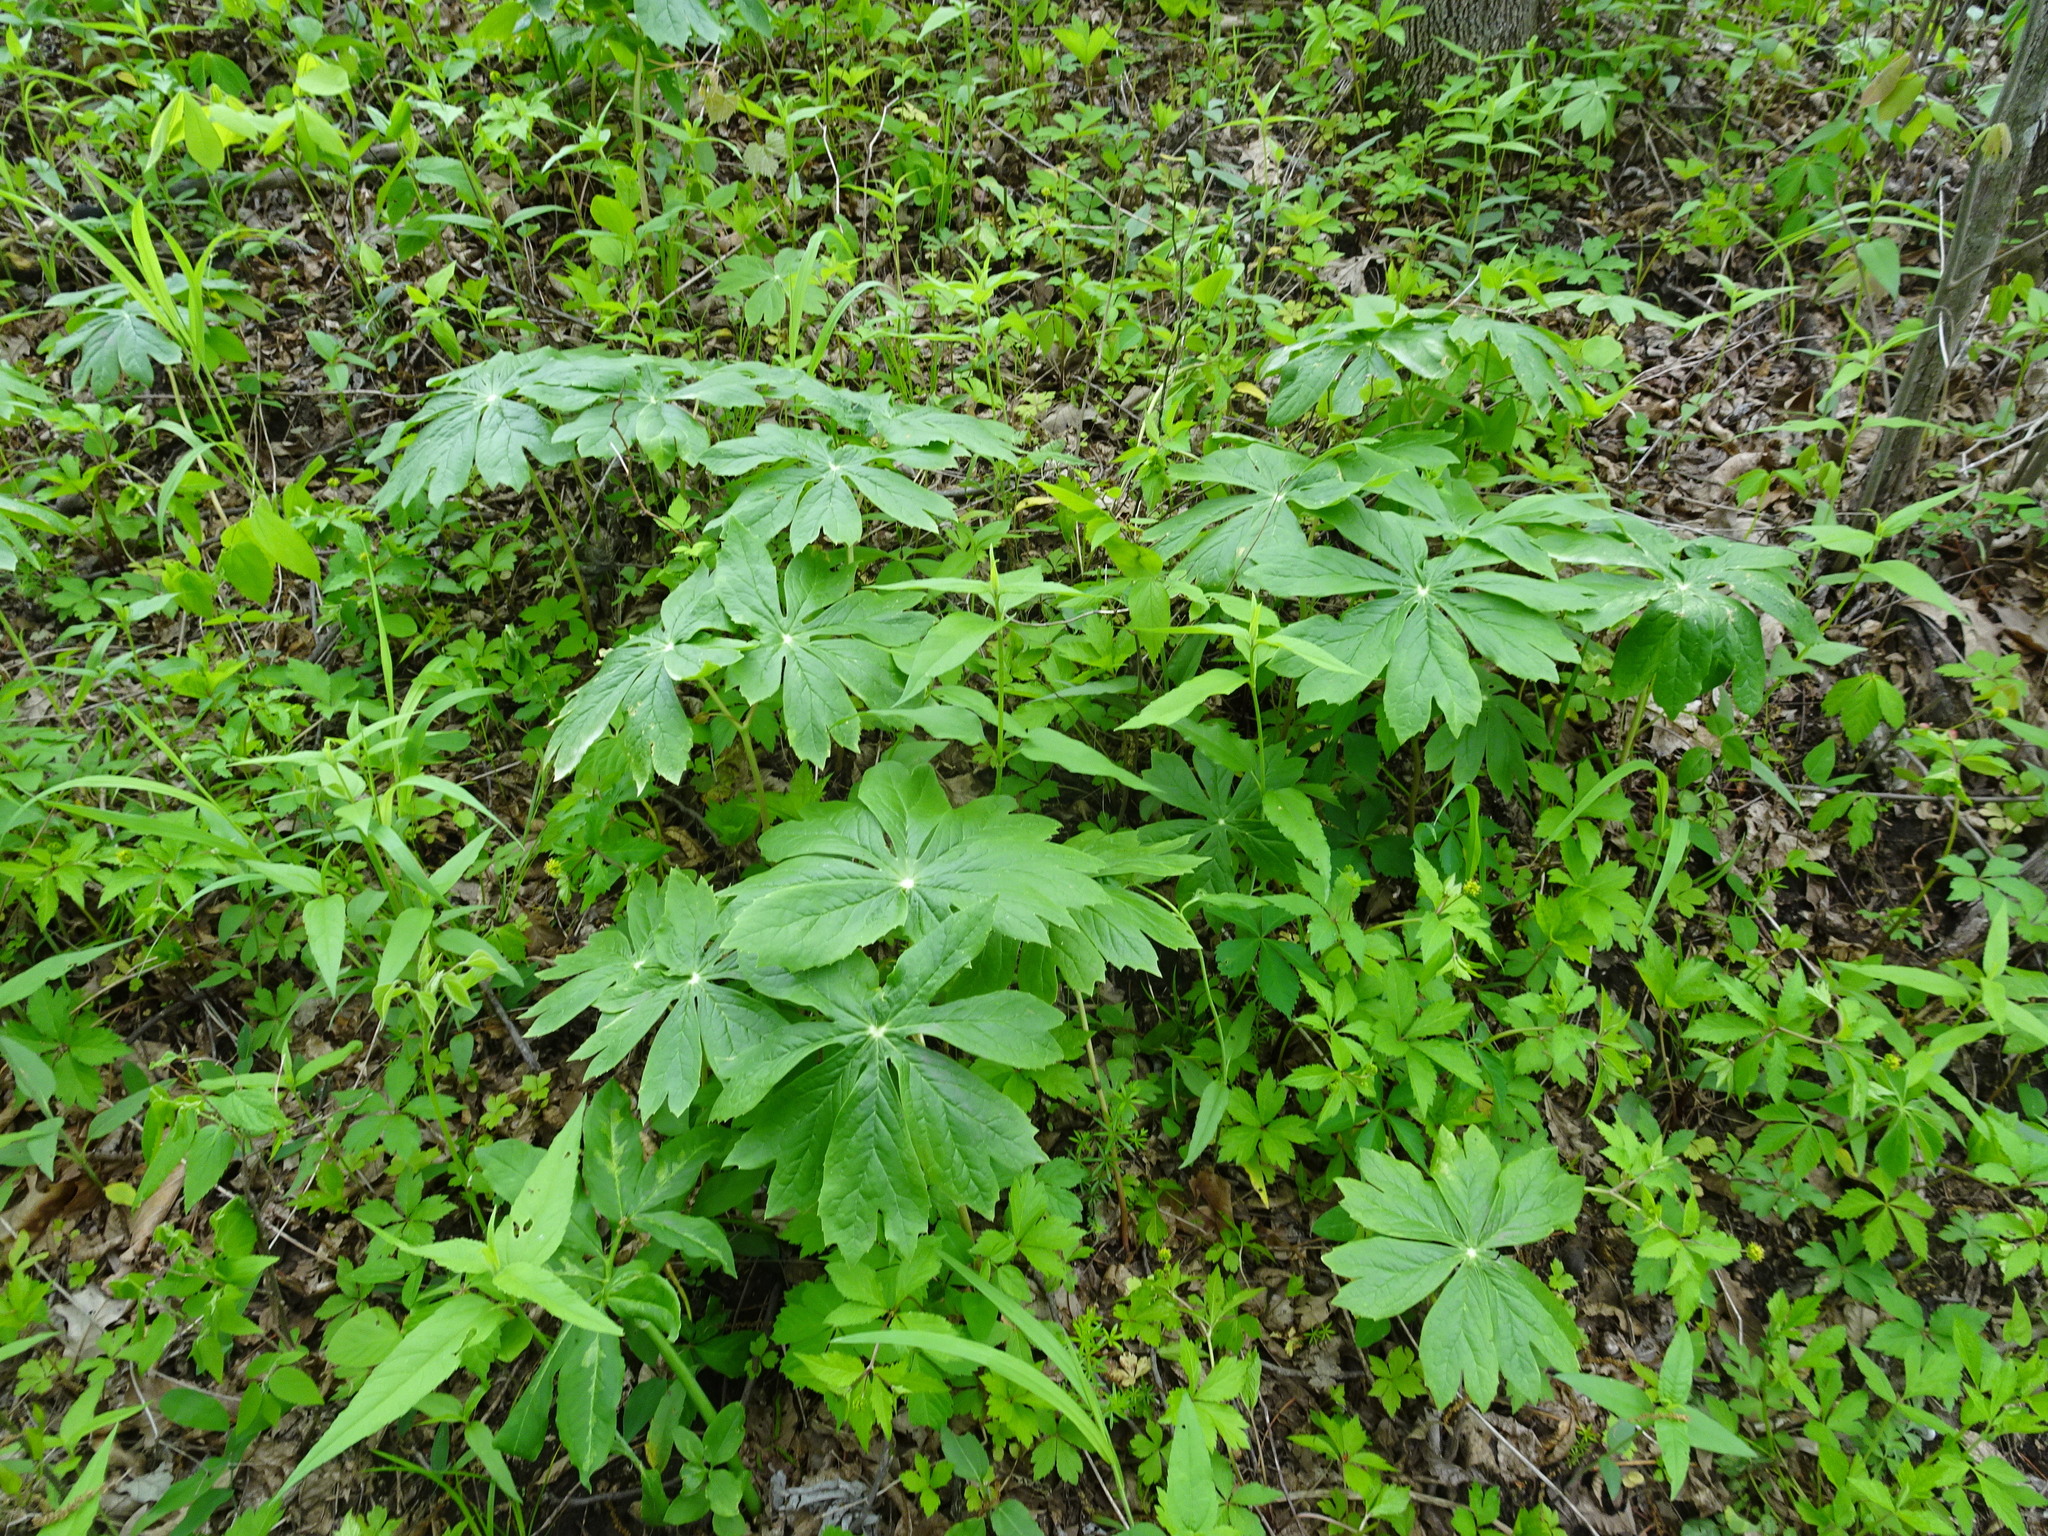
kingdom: Plantae
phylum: Tracheophyta
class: Magnoliopsida
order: Ranunculales
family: Berberidaceae
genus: Podophyllum
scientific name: Podophyllum peltatum
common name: Wild mandrake
